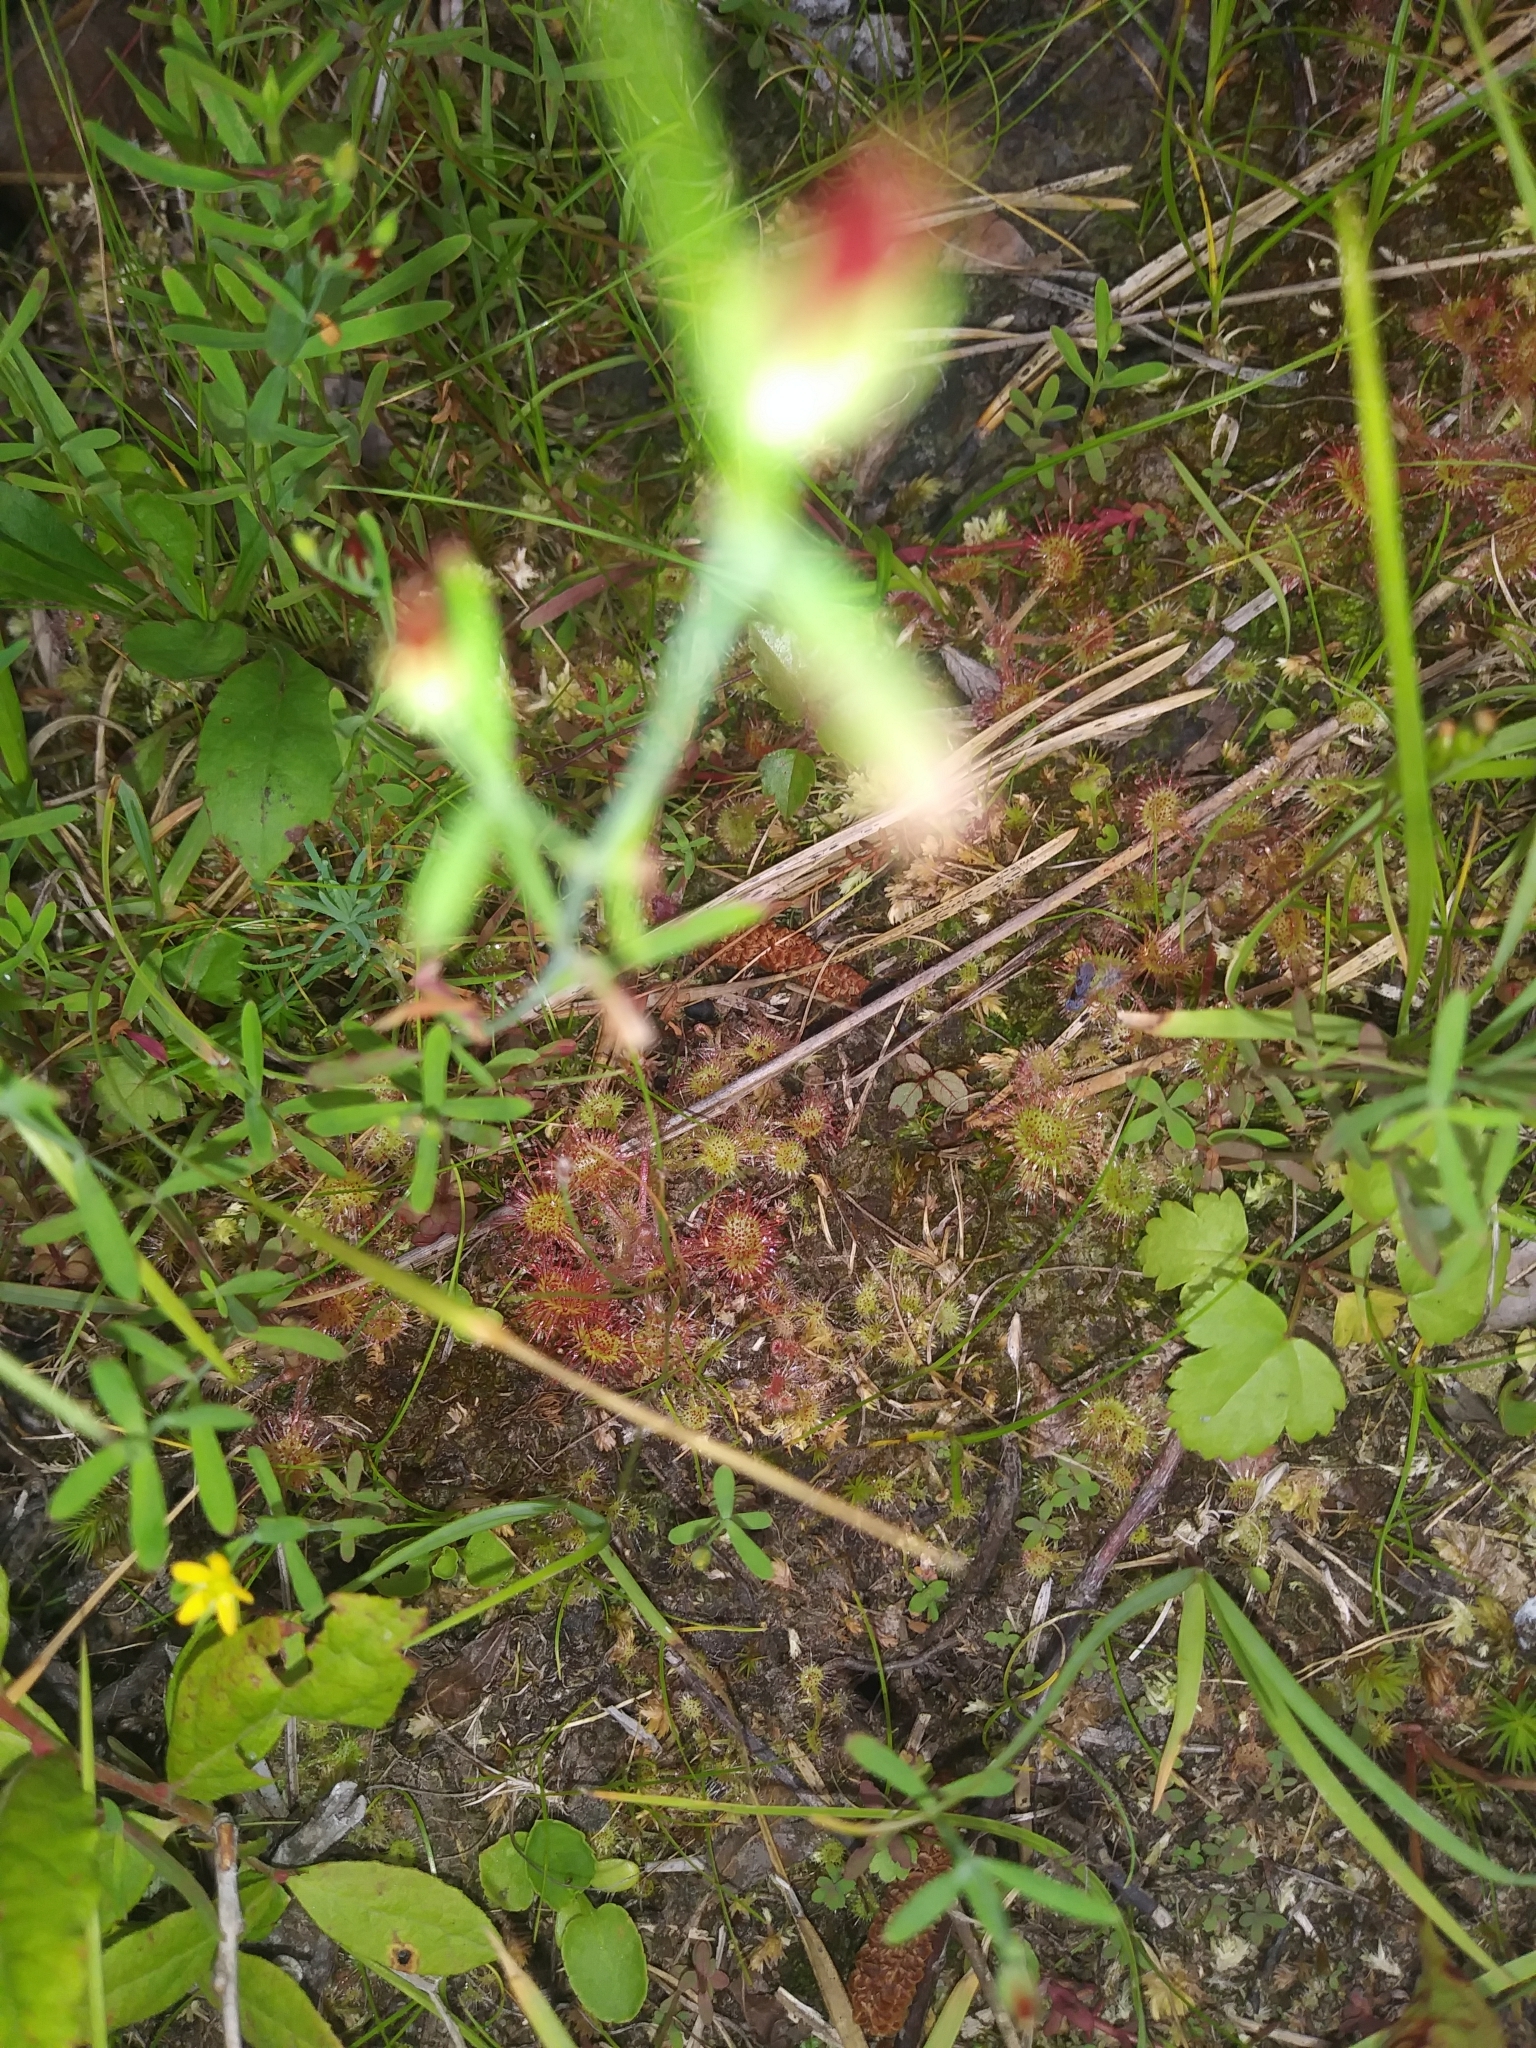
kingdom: Plantae
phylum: Tracheophyta
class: Magnoliopsida
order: Caryophyllales
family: Droseraceae
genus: Drosera
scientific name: Drosera rotundifolia
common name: Round-leaved sundew
